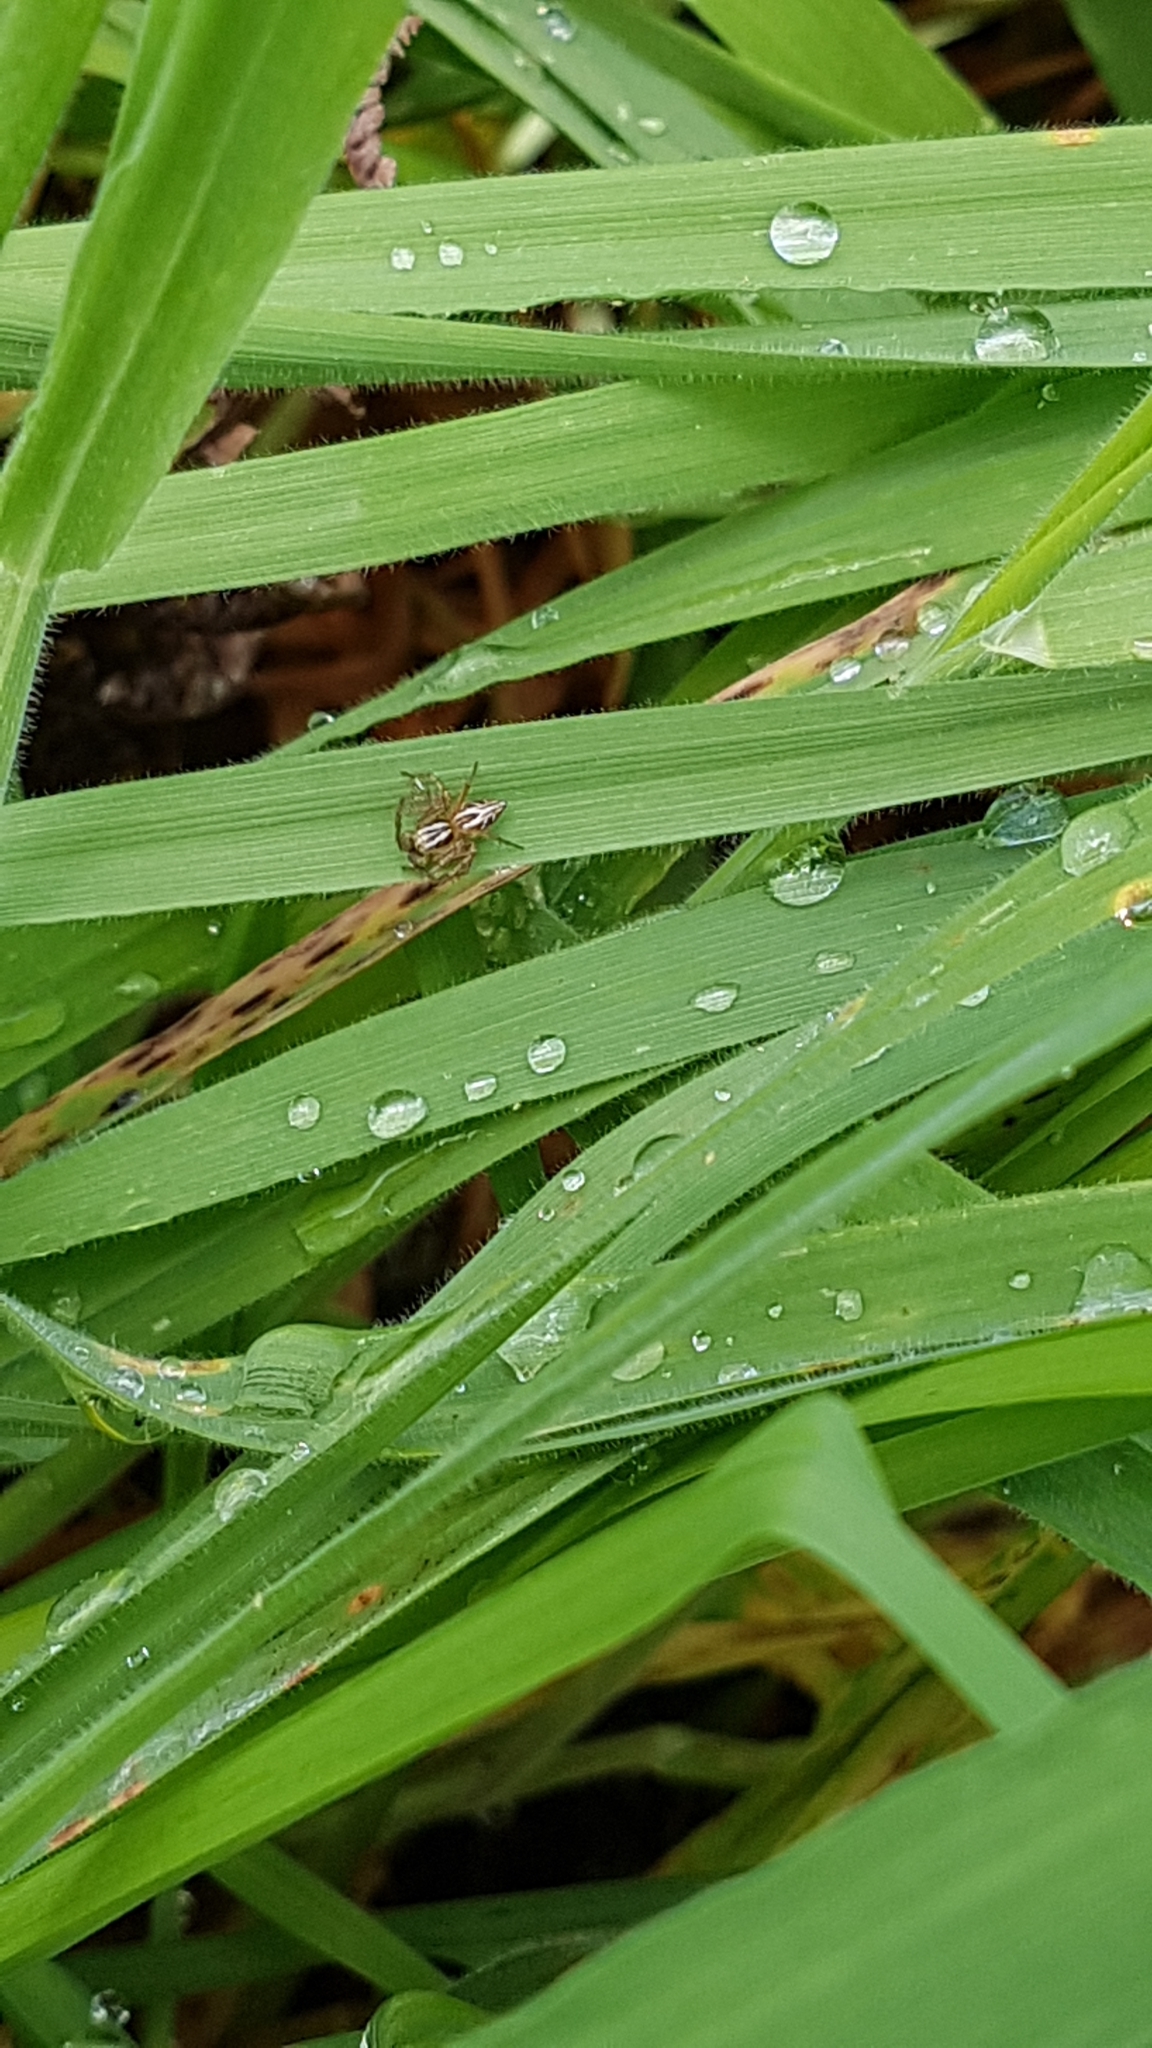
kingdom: Animalia
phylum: Arthropoda
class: Arachnida
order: Araneae
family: Oxyopidae
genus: Oxyopes
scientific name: Oxyopes gracilipes
